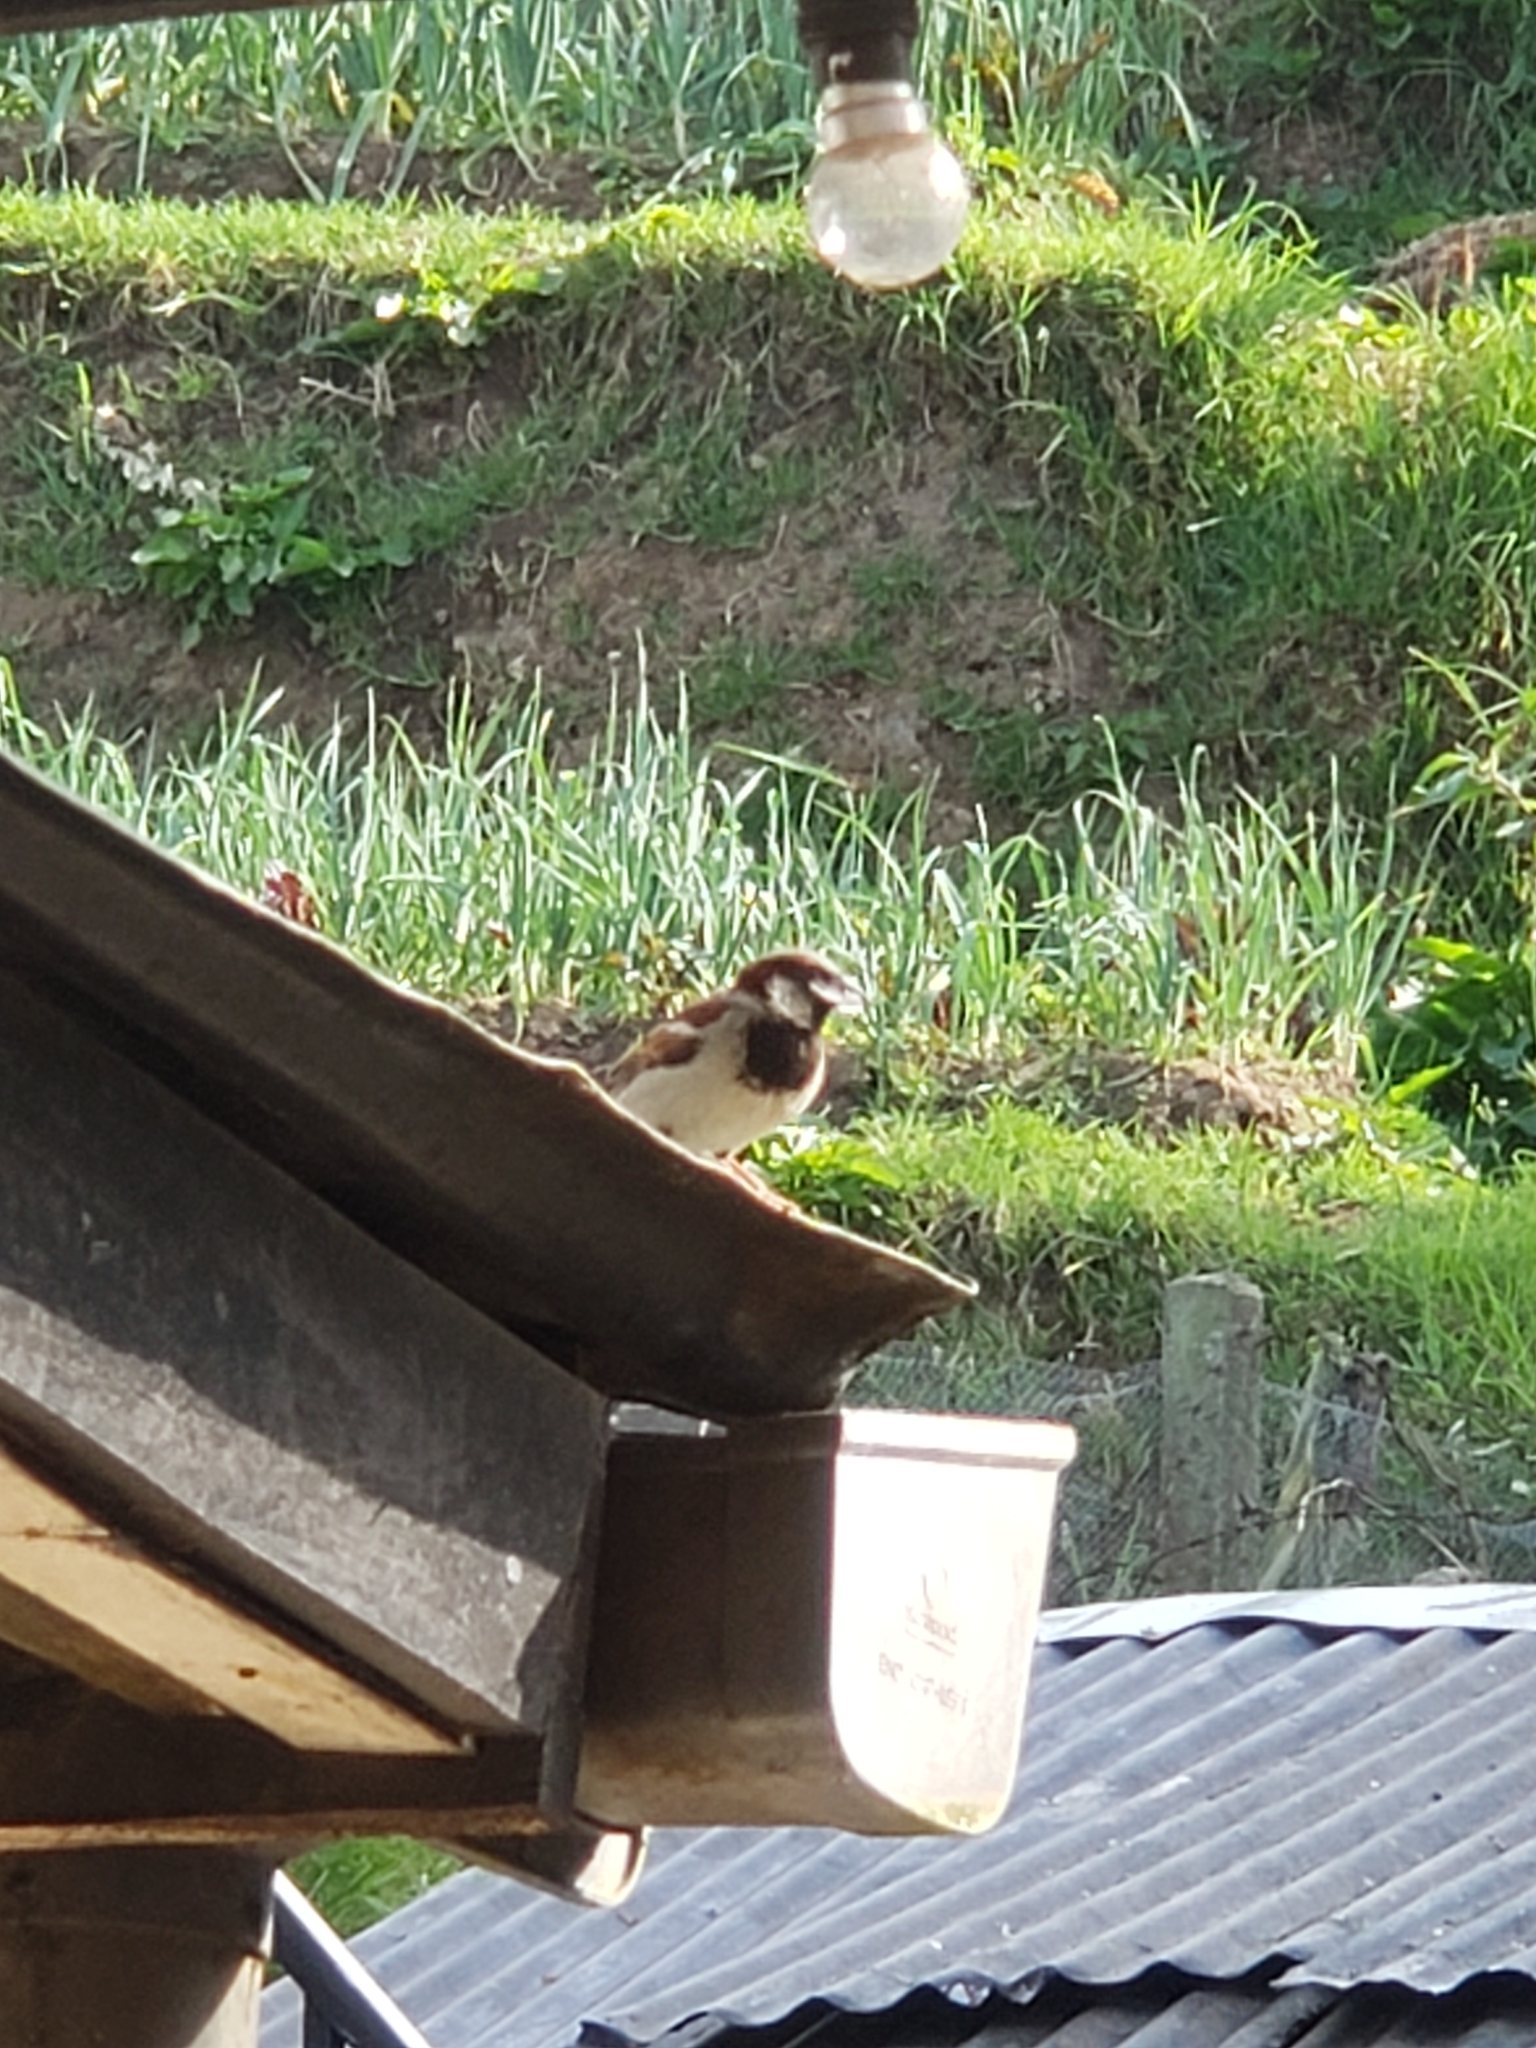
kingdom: Animalia
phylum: Chordata
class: Aves
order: Passeriformes
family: Passeridae
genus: Passer
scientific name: Passer domesticus
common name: House sparrow
